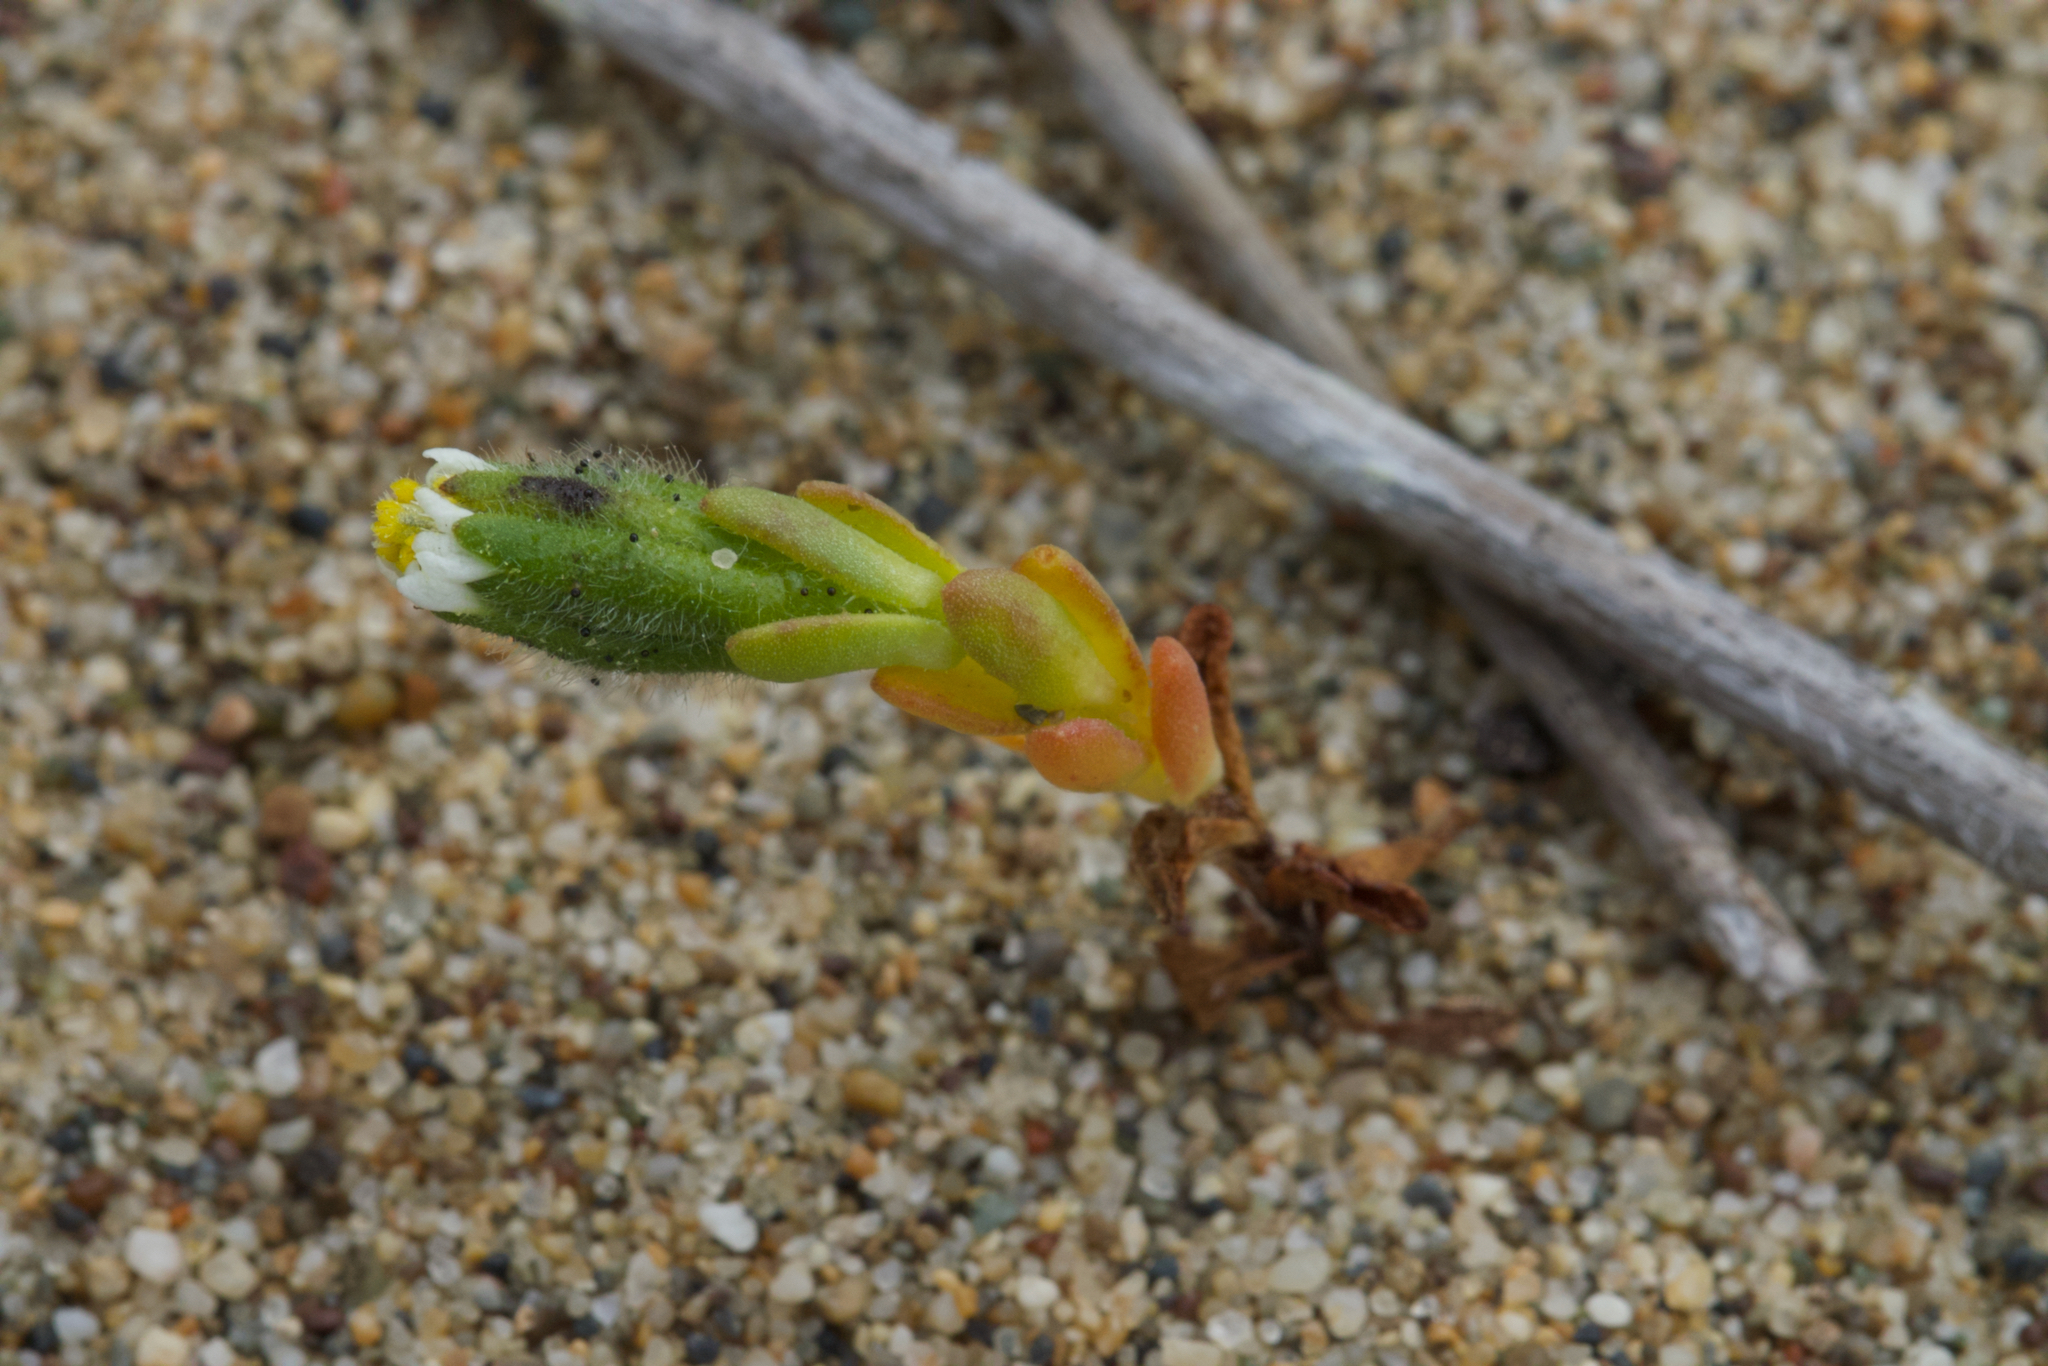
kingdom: Plantae
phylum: Tracheophyta
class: Magnoliopsida
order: Asterales
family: Asteraceae
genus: Layia
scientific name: Layia carnosa
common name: Beach layia
